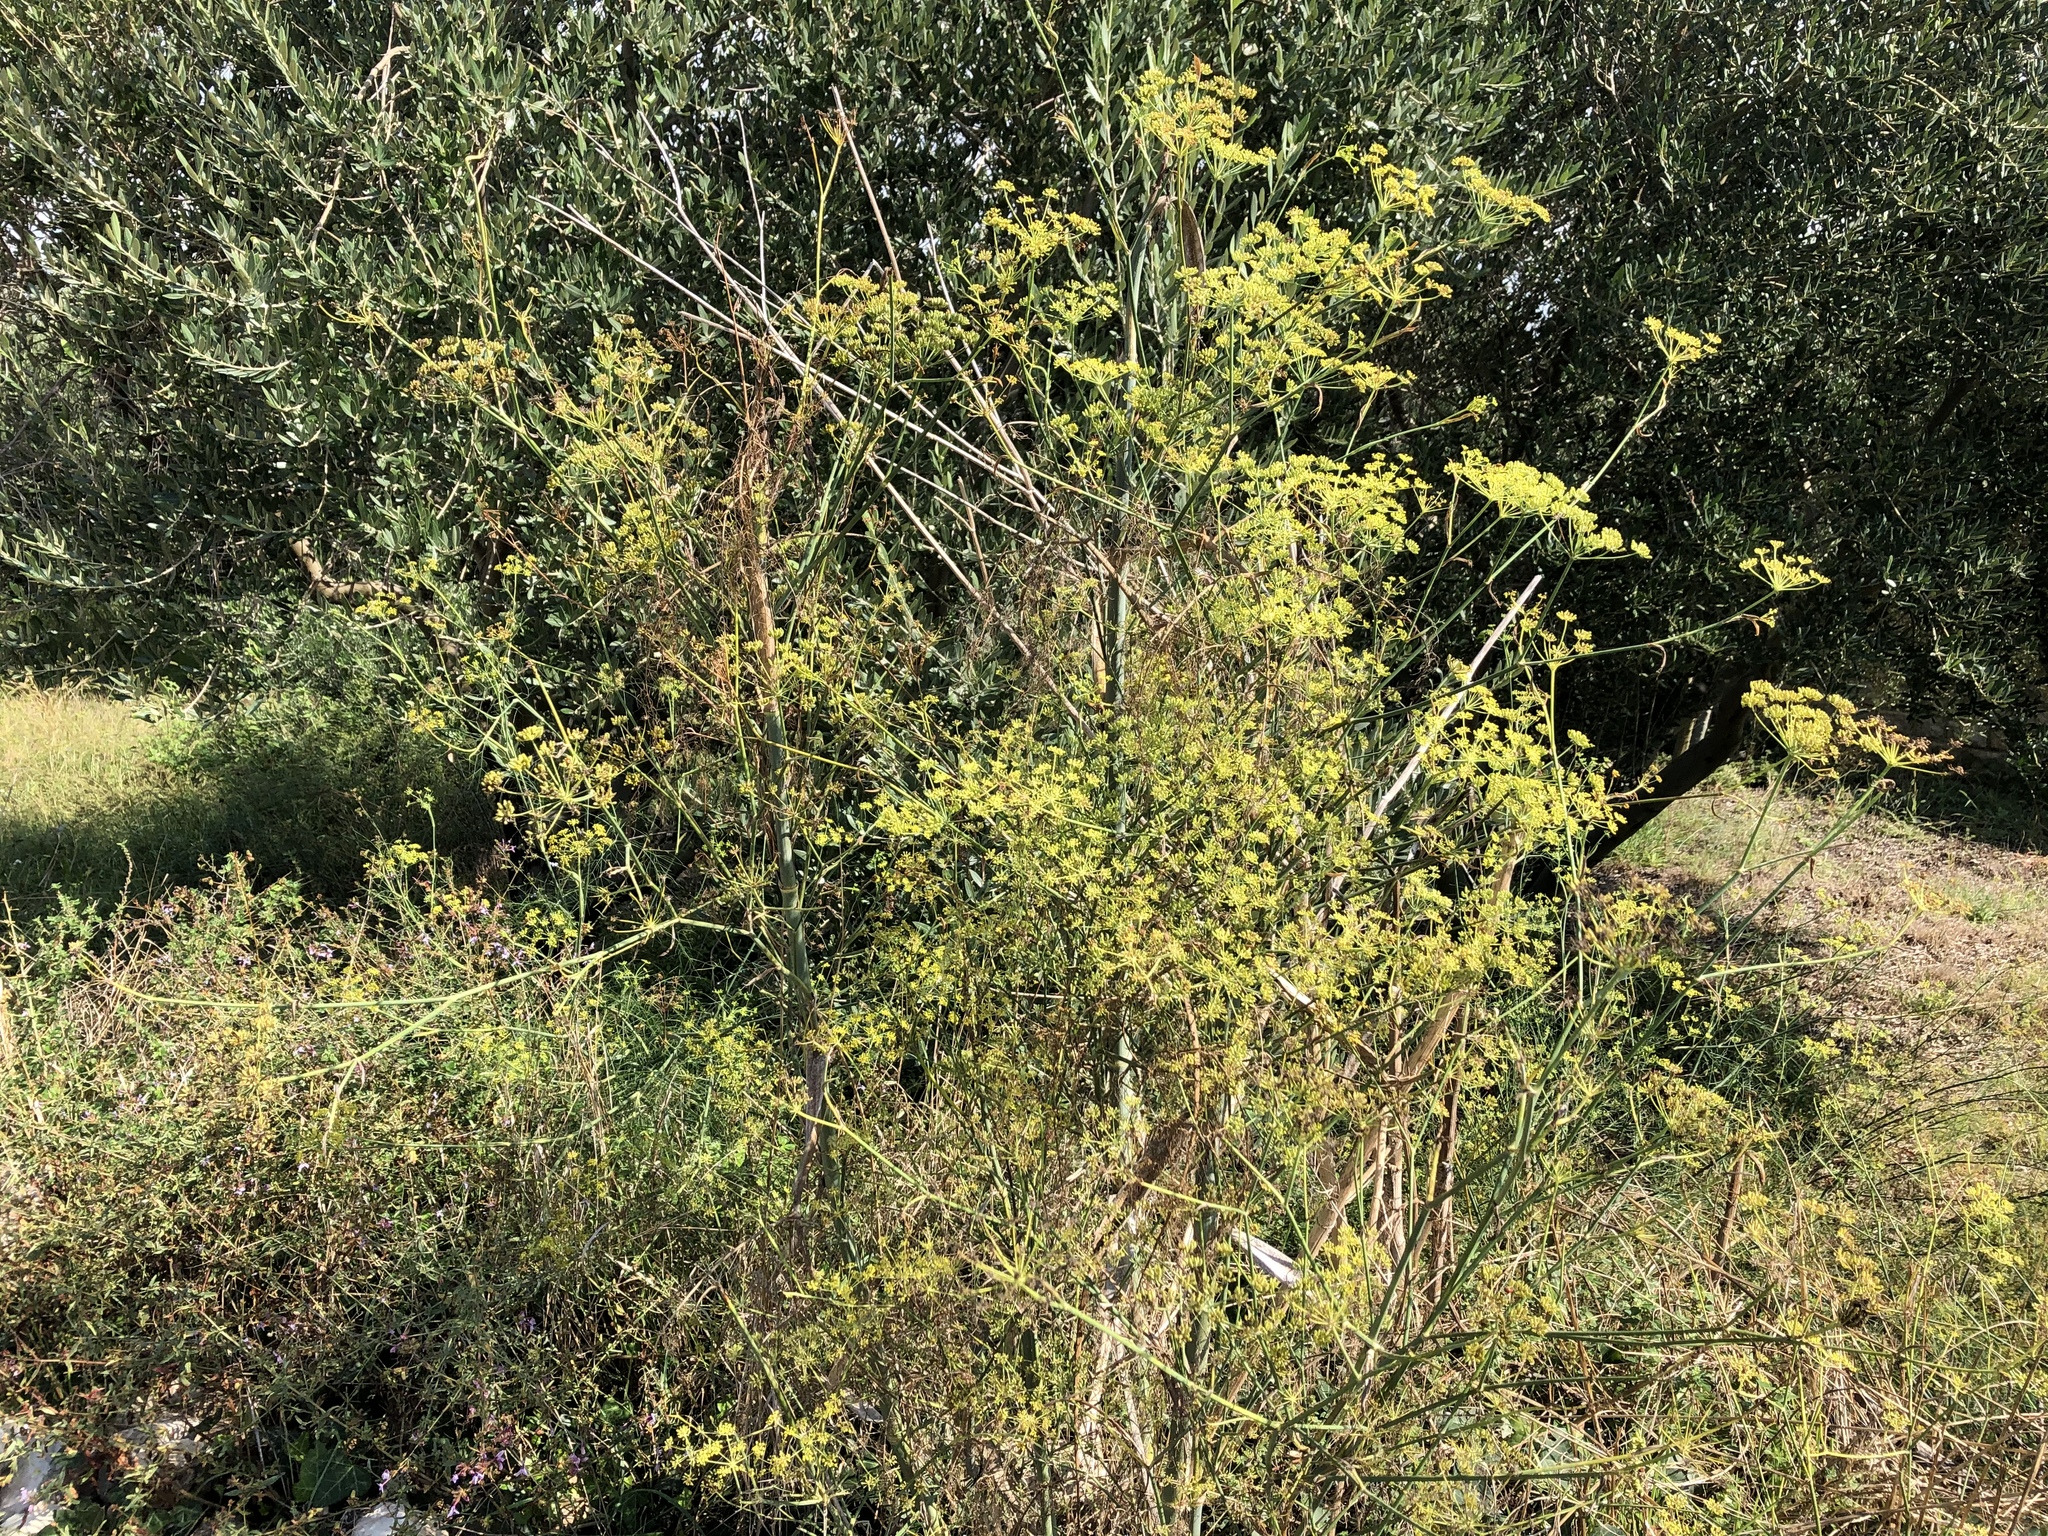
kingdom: Plantae
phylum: Tracheophyta
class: Magnoliopsida
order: Apiales
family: Apiaceae
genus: Foeniculum
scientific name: Foeniculum vulgare
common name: Fennel
